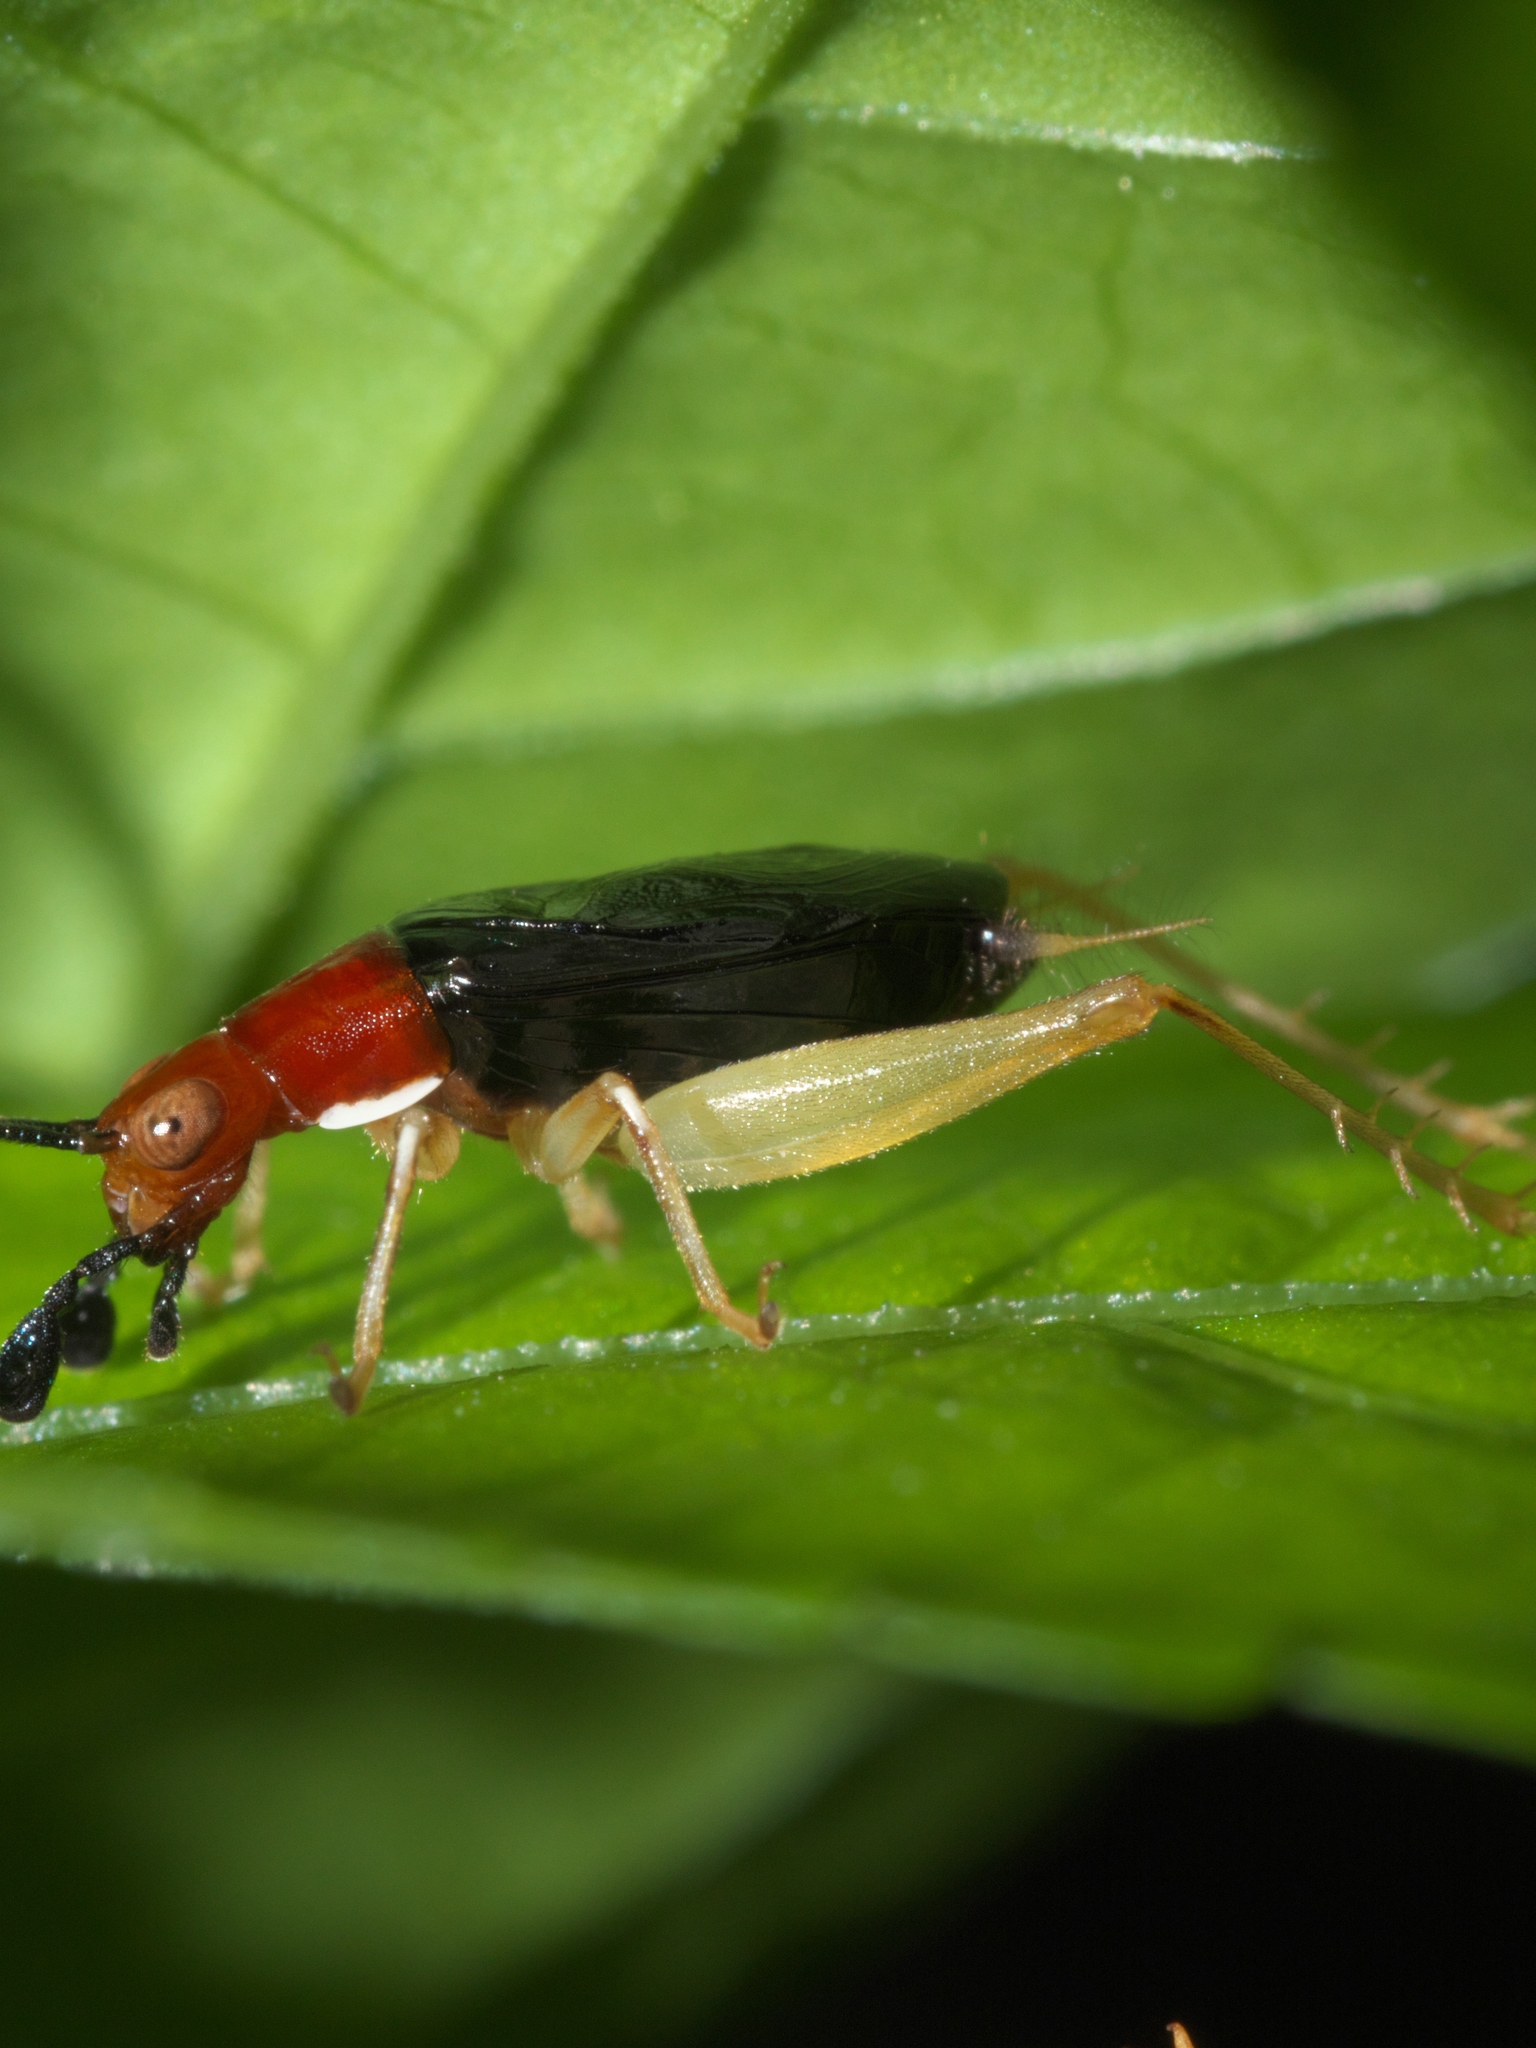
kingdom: Animalia
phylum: Arthropoda
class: Insecta
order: Orthoptera
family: Trigonidiidae
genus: Phyllopalpus
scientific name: Phyllopalpus pulchellus
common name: Handsome trig
